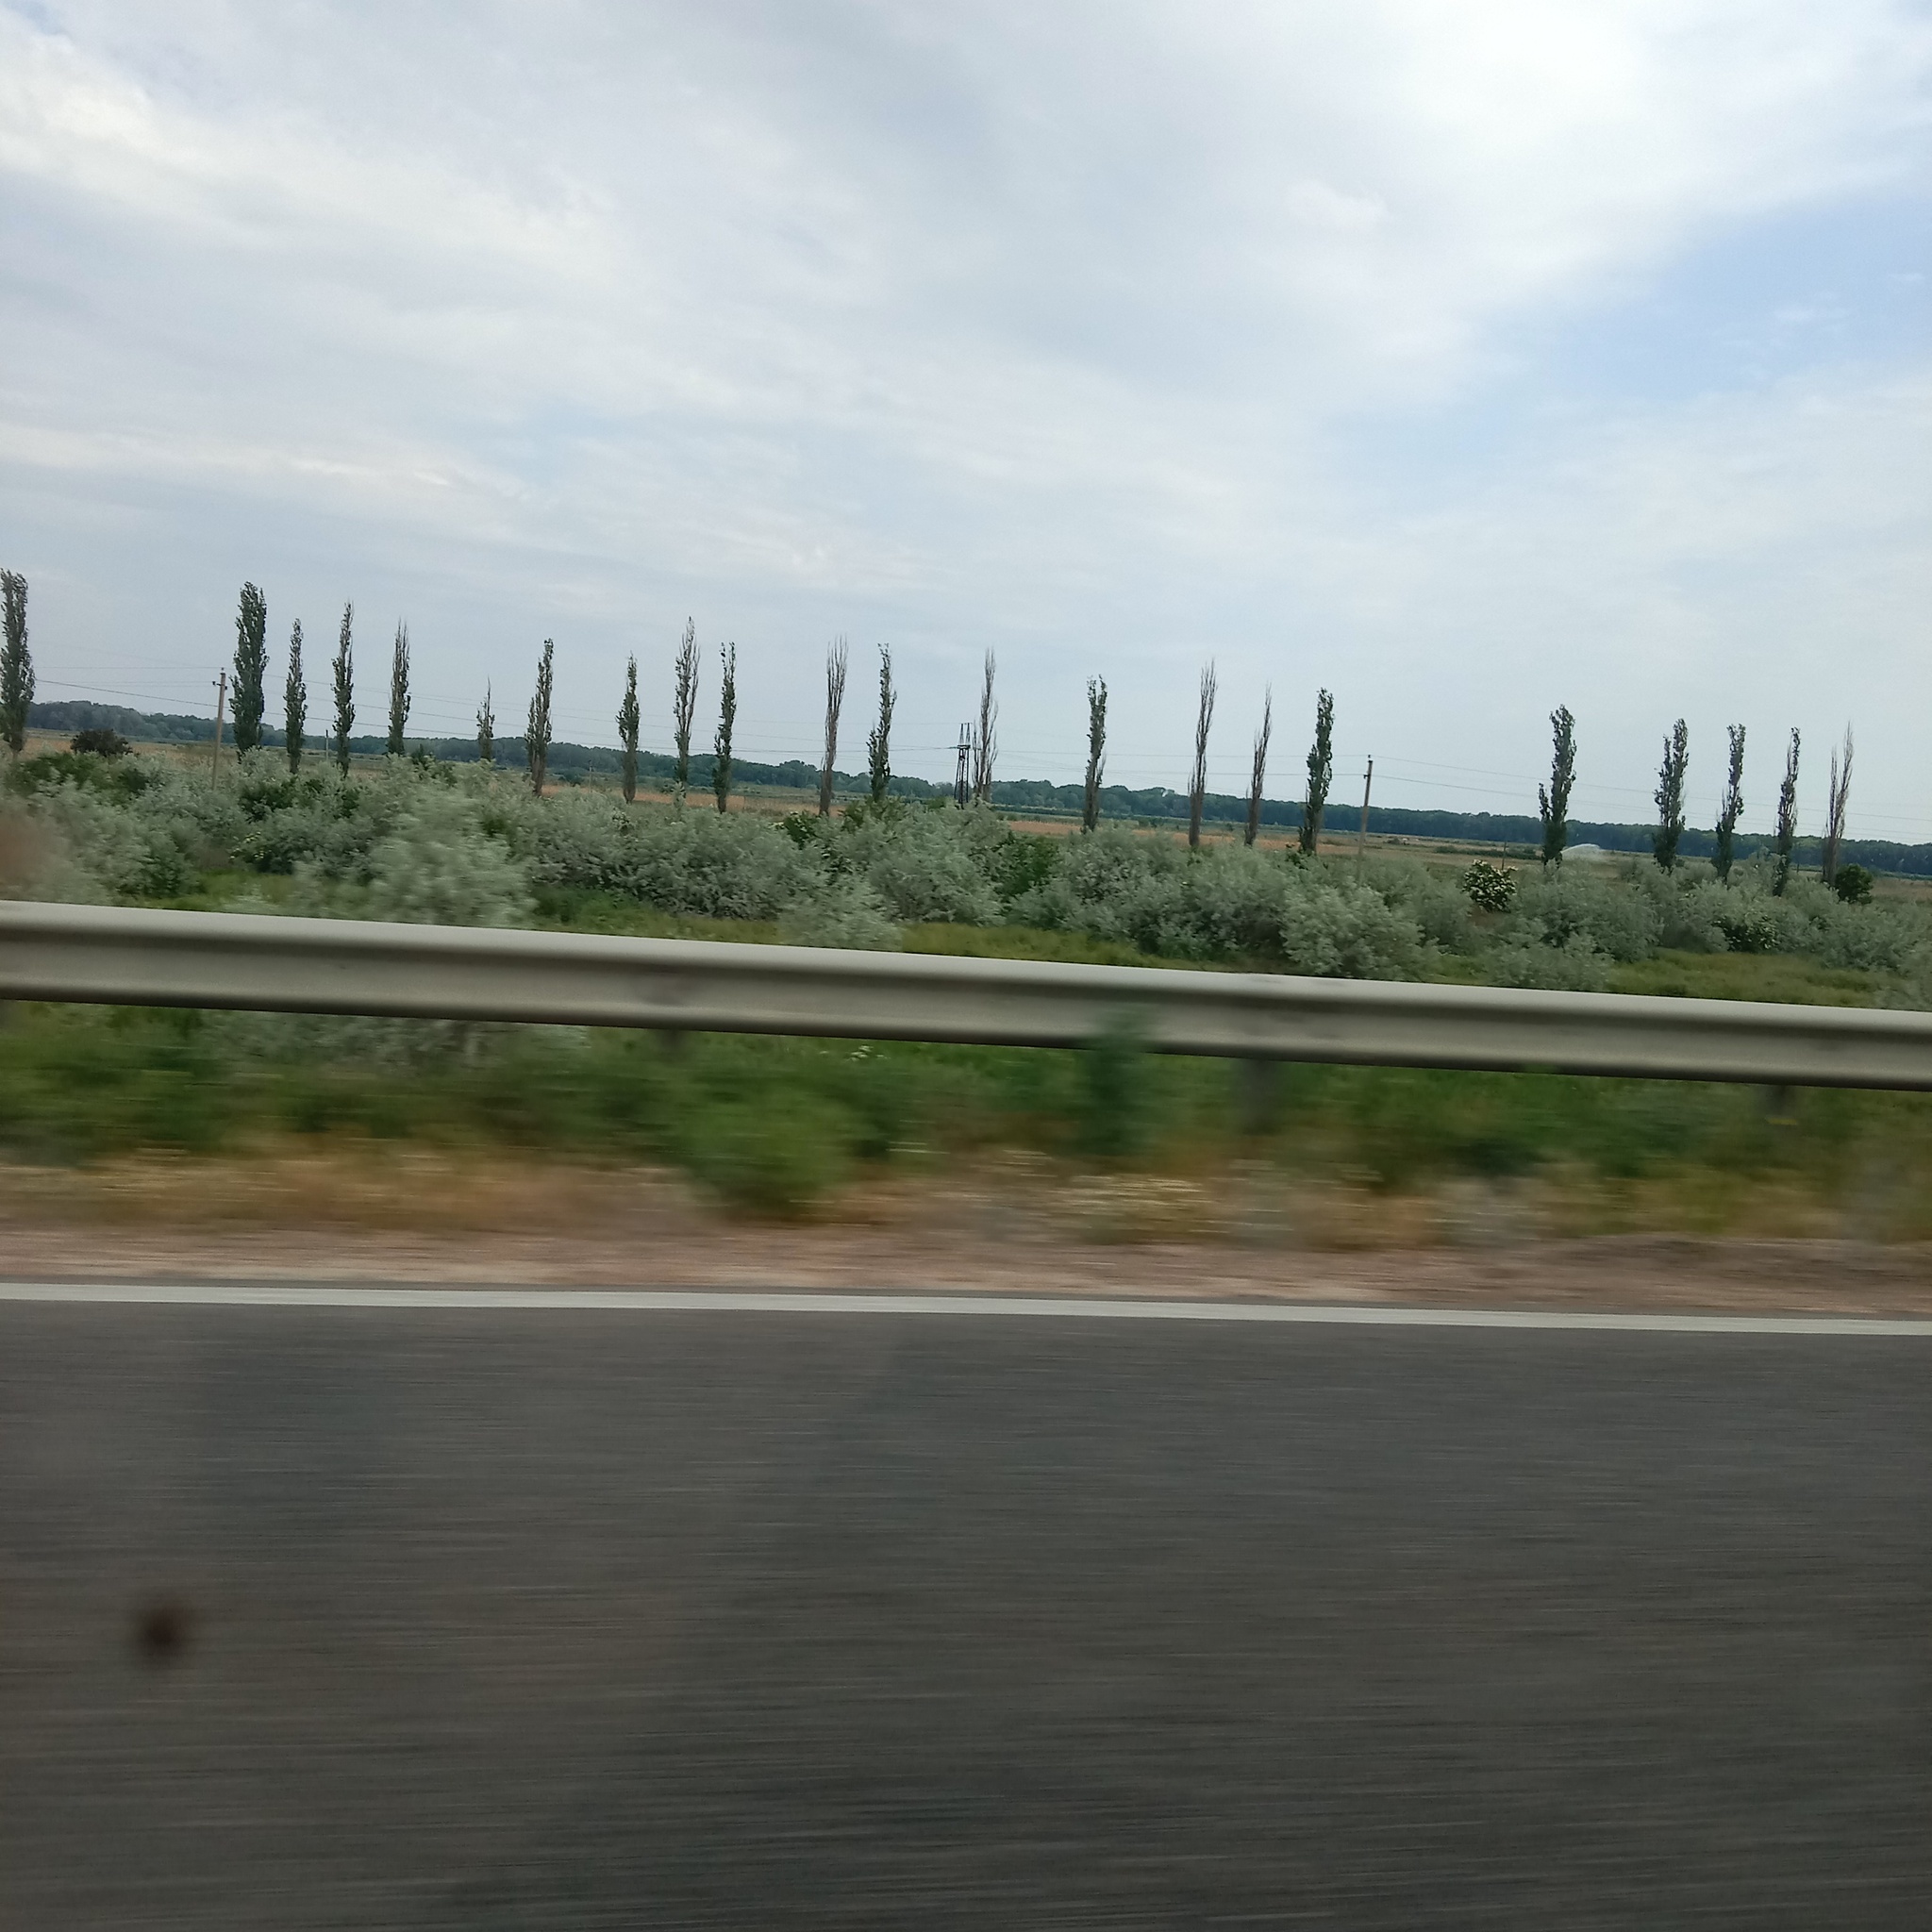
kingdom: Plantae
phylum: Tracheophyta
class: Magnoliopsida
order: Rosales
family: Elaeagnaceae
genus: Elaeagnus
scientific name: Elaeagnus angustifolia
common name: Russian olive
